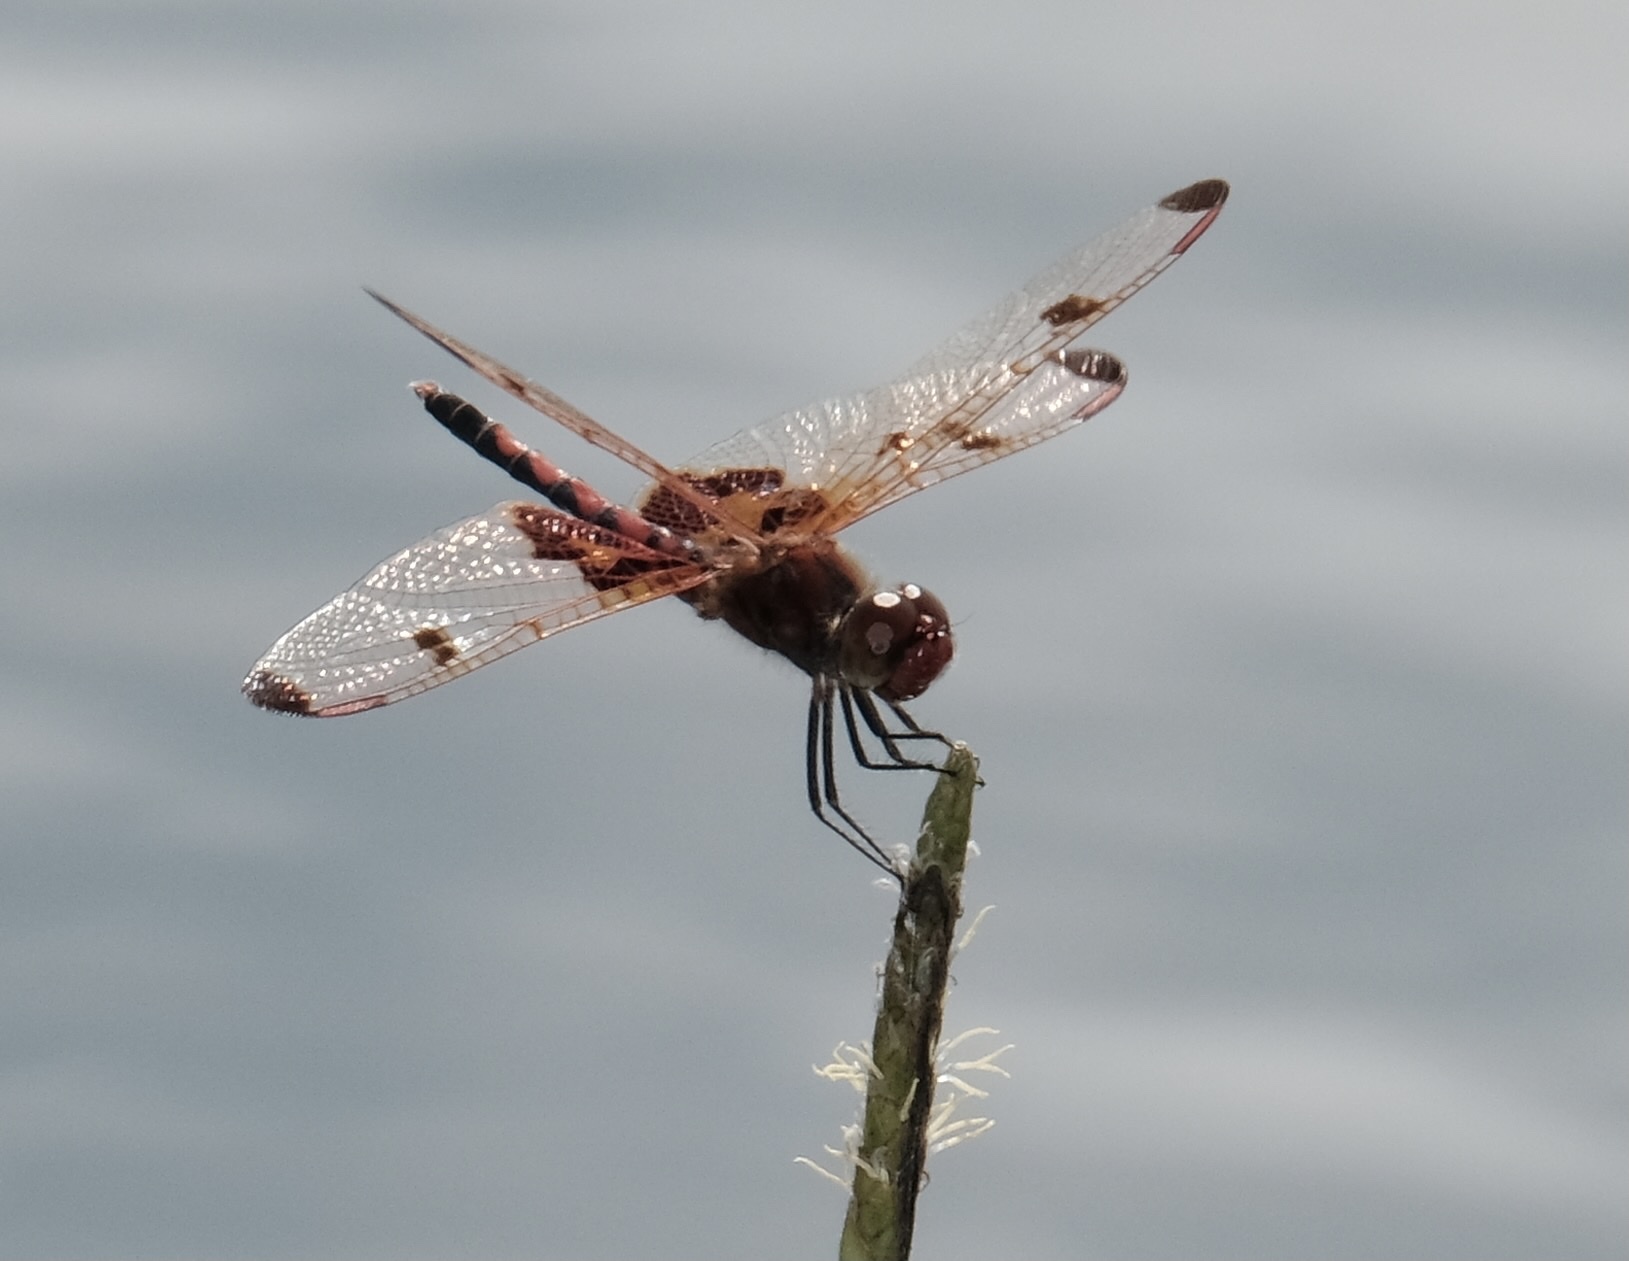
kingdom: Animalia
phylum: Arthropoda
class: Insecta
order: Odonata
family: Libellulidae
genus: Celithemis
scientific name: Celithemis elisa
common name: Calico pennant
